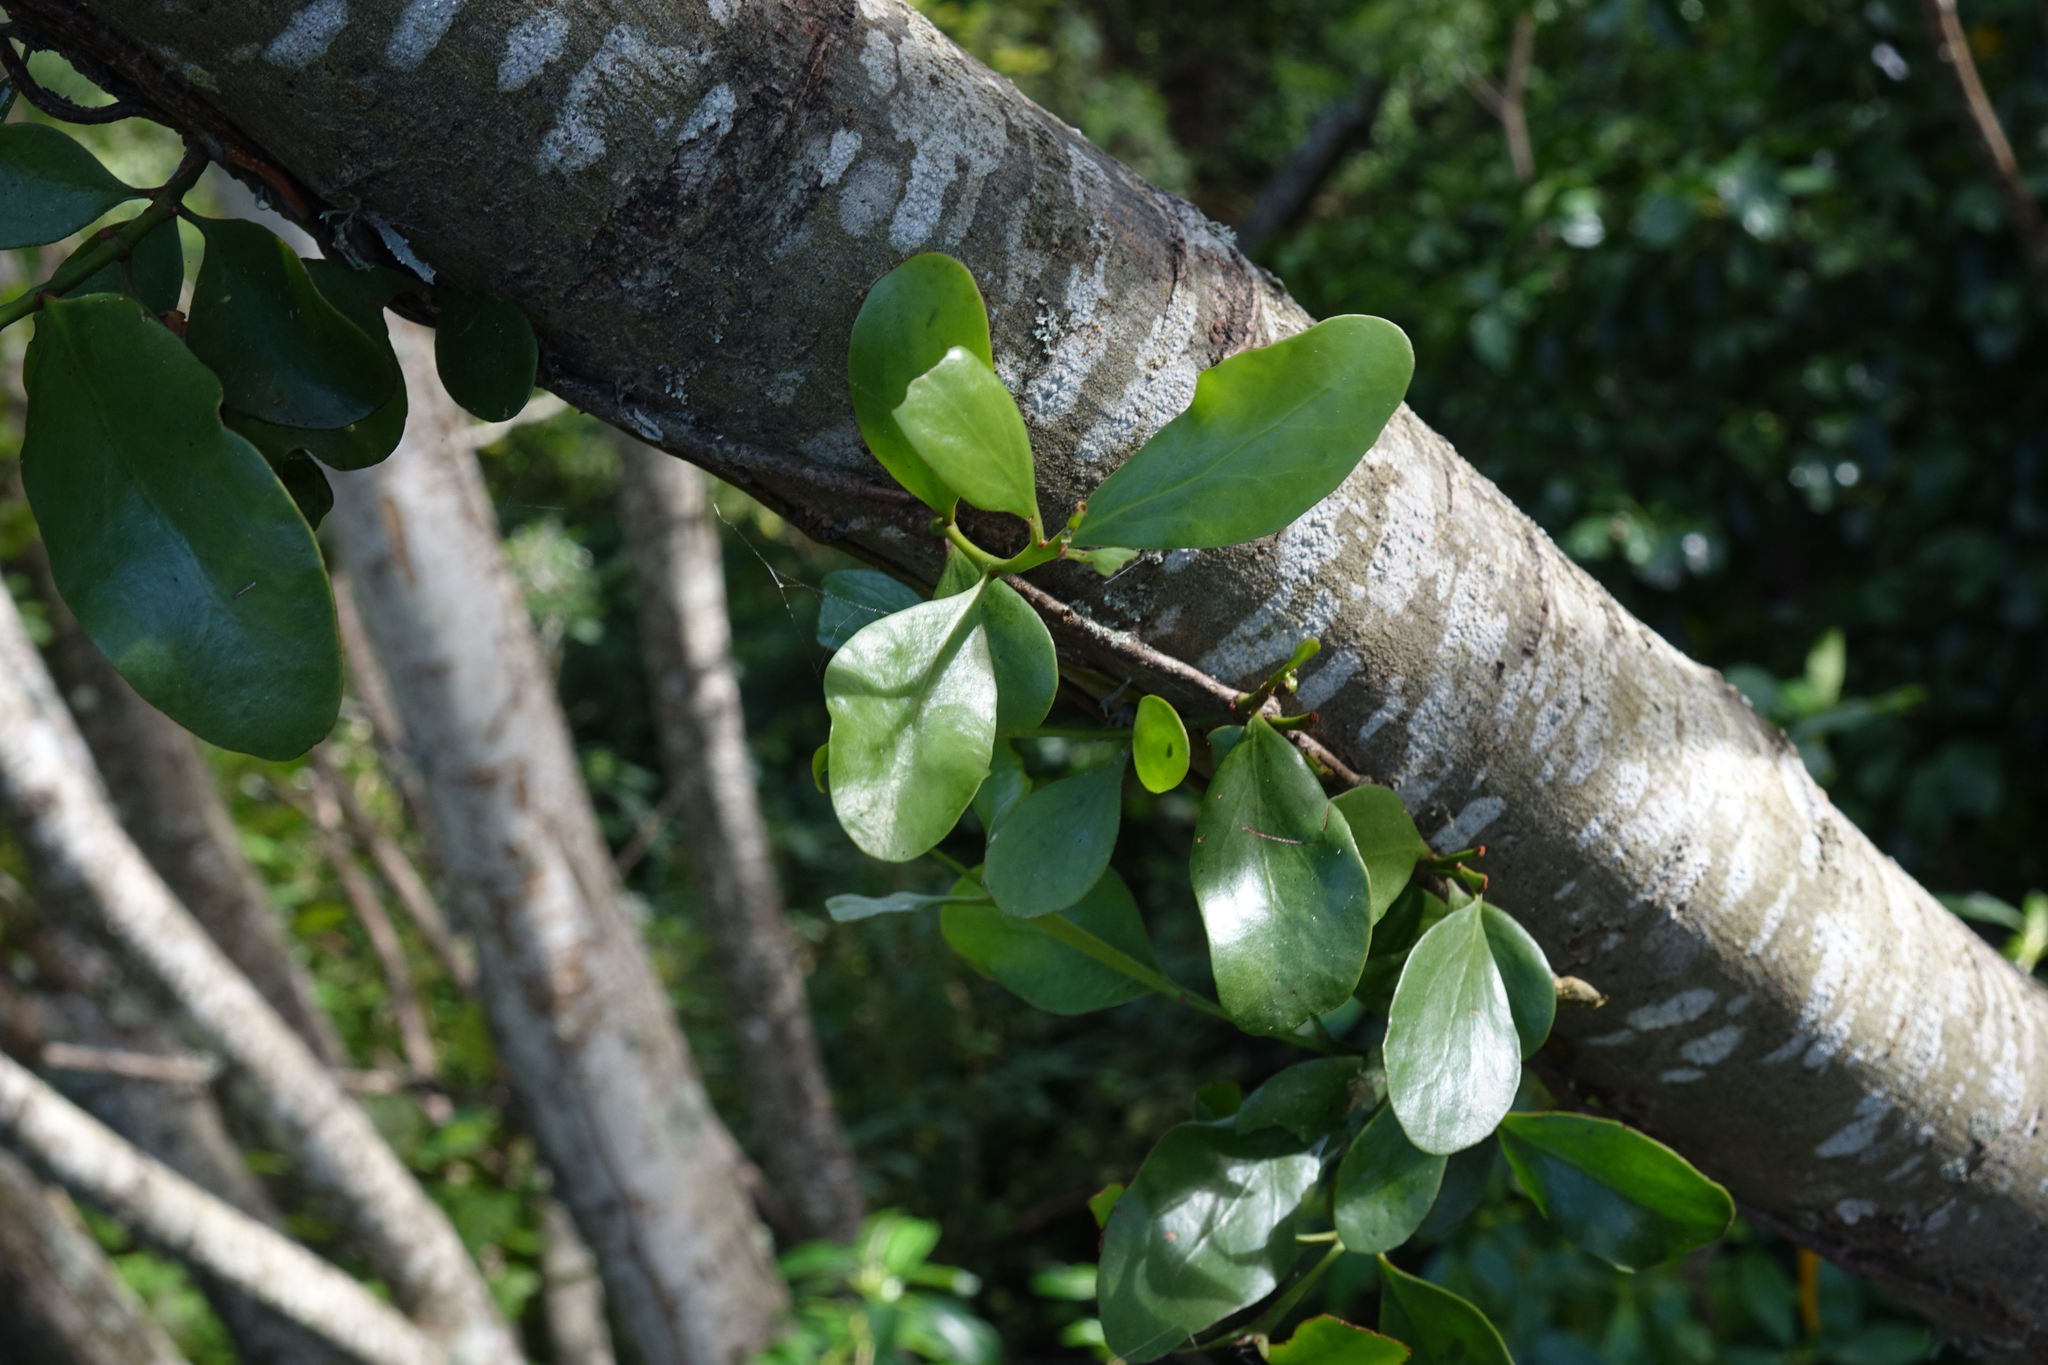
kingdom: Plantae
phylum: Tracheophyta
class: Magnoliopsida
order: Santalales
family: Loranthaceae
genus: Ileostylus
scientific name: Ileostylus micranthus
